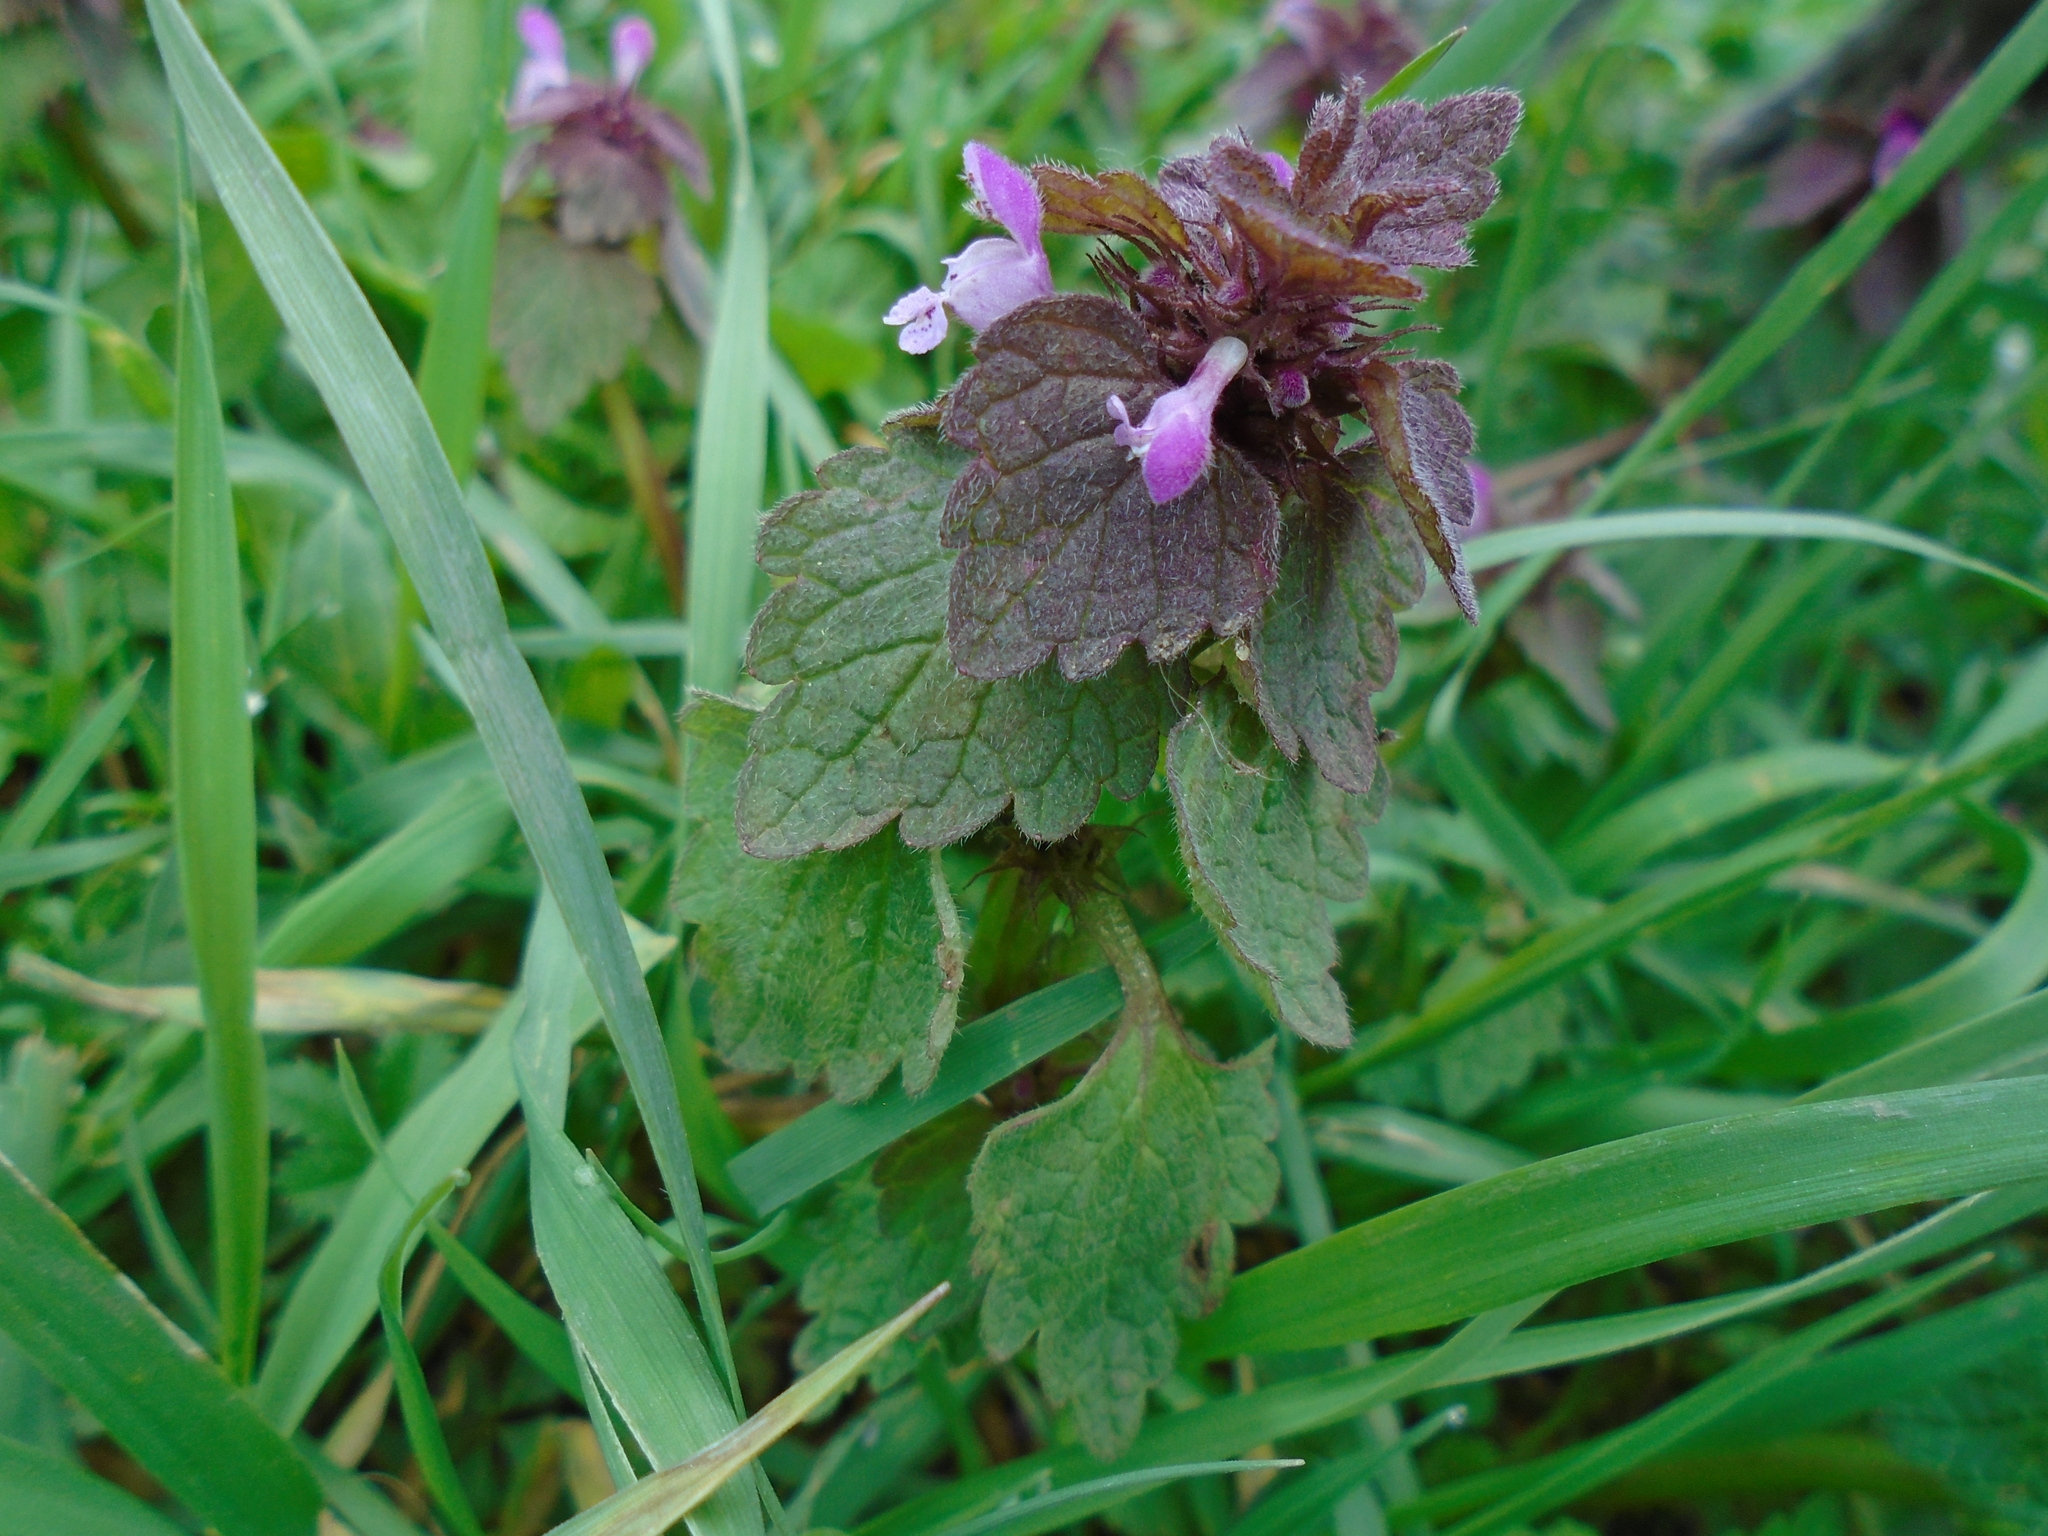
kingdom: Plantae
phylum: Tracheophyta
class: Magnoliopsida
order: Lamiales
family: Lamiaceae
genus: Lamium
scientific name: Lamium purpureum
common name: Red dead-nettle
